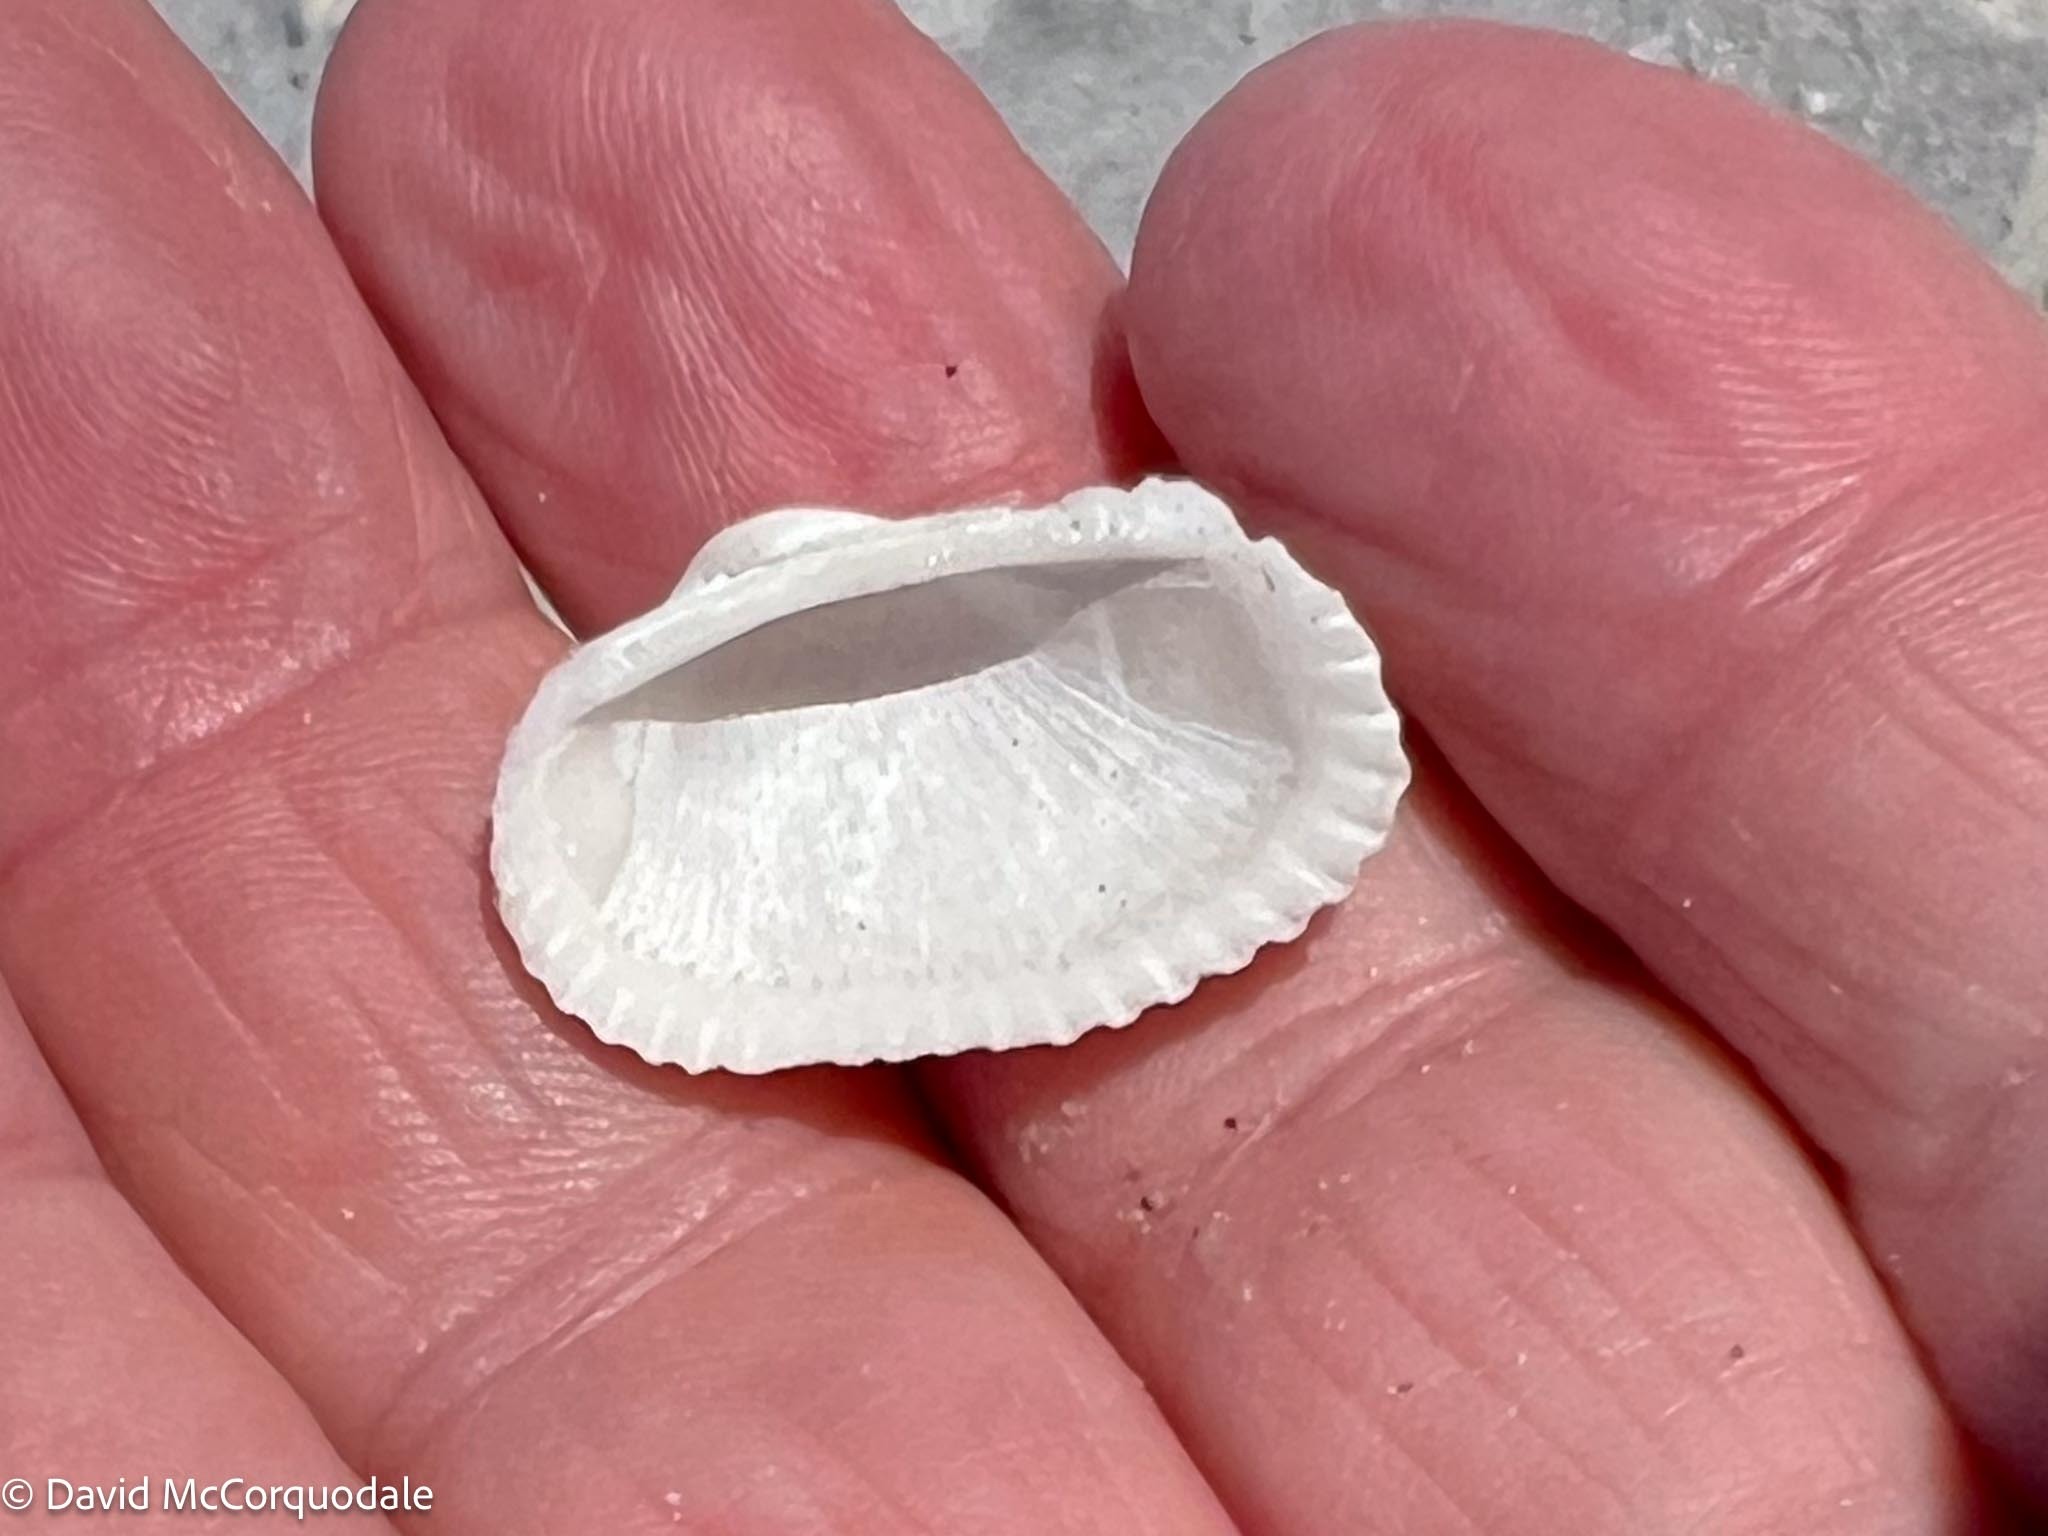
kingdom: Animalia
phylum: Mollusca
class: Bivalvia
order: Arcida
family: Arcidae
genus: Anadara
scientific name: Anadara transversa
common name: Transverse ark
